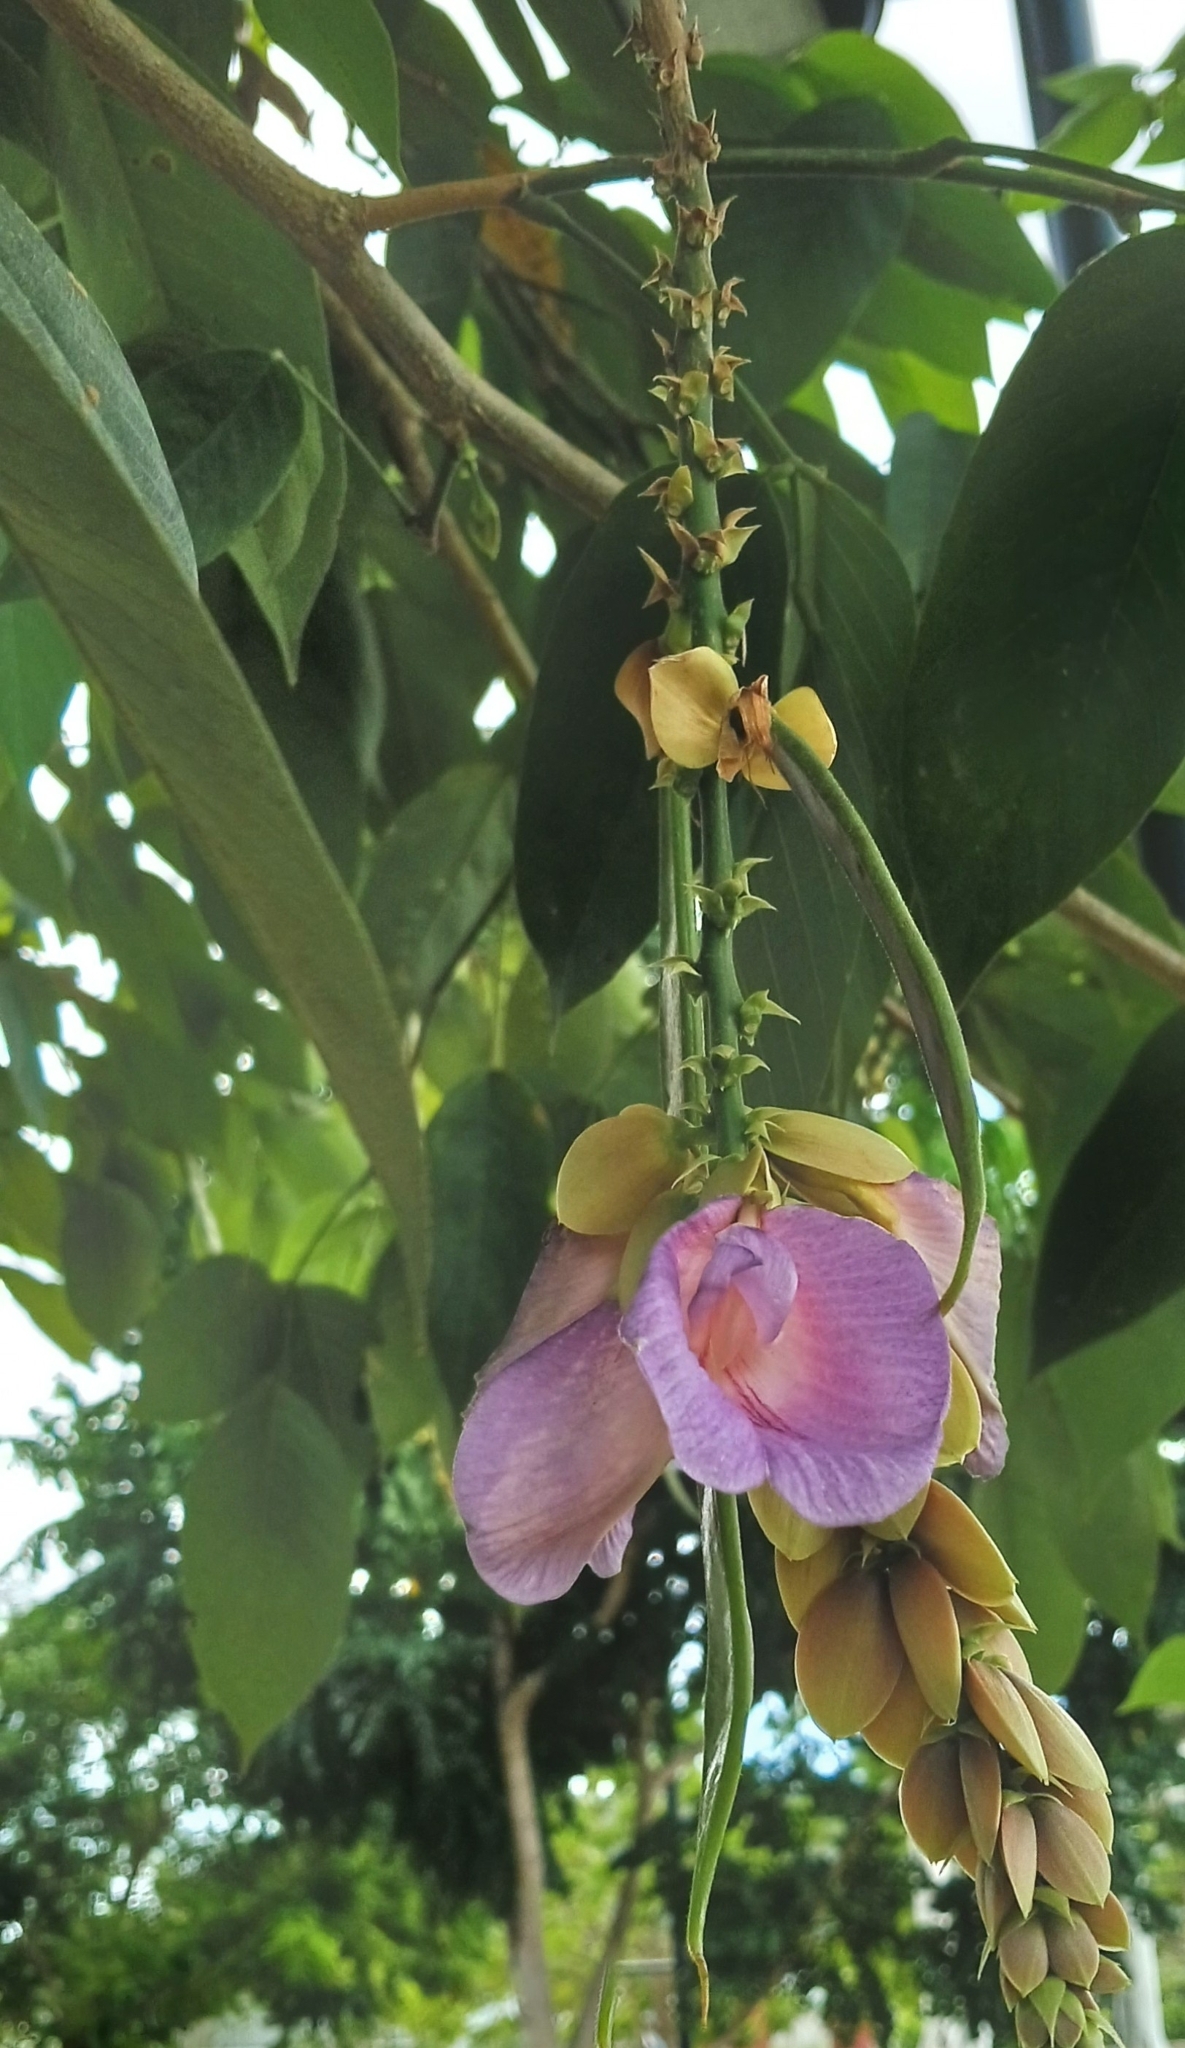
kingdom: Plantae
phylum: Tracheophyta
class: Magnoliopsida
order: Fabales
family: Fabaceae
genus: Clitoria
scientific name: Clitoria fairchildiana
